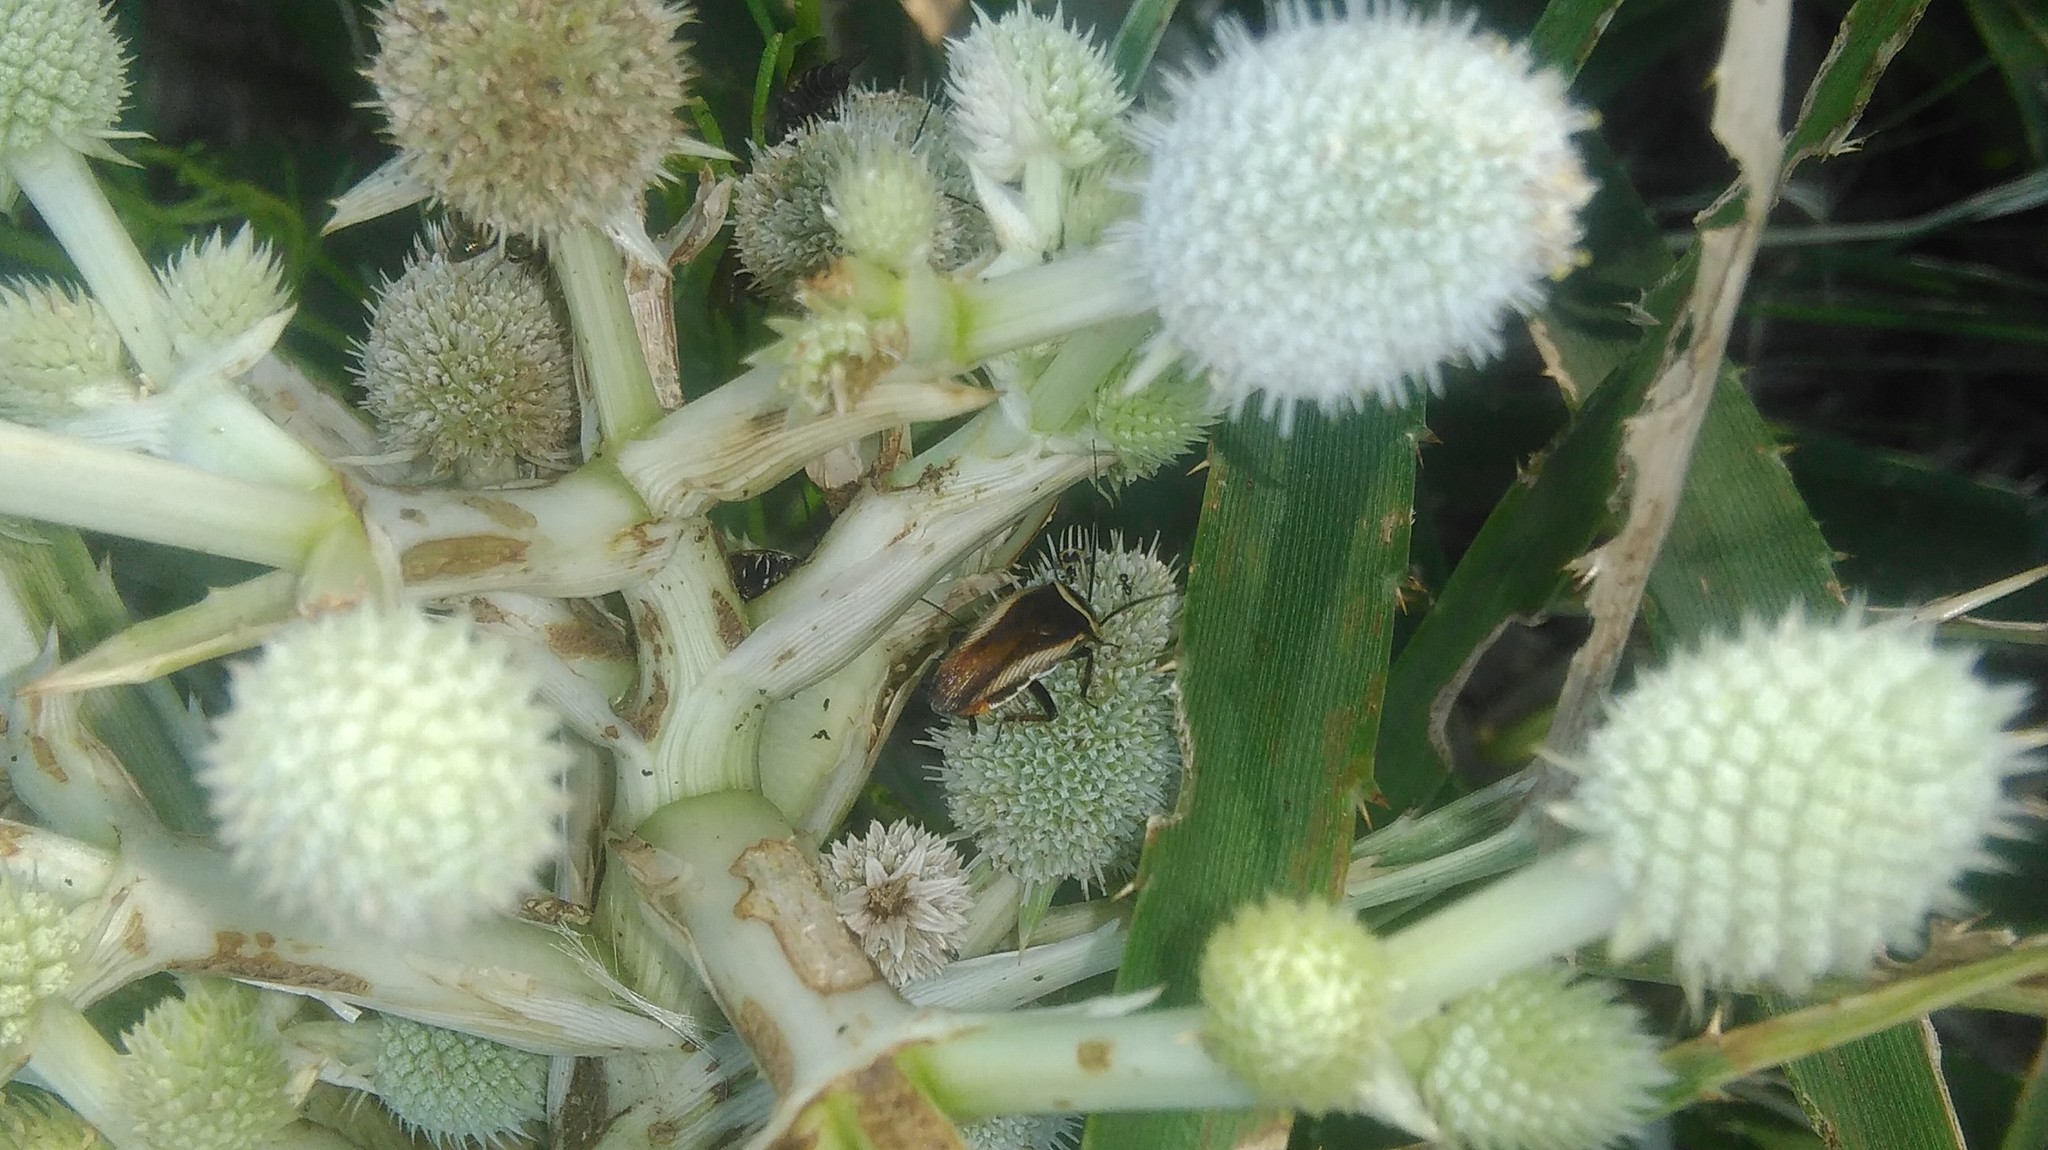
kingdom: Animalia
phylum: Arthropoda
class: Insecta
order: Blattodea
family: Ectobiidae
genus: Pseudomops
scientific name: Pseudomops neglectus
